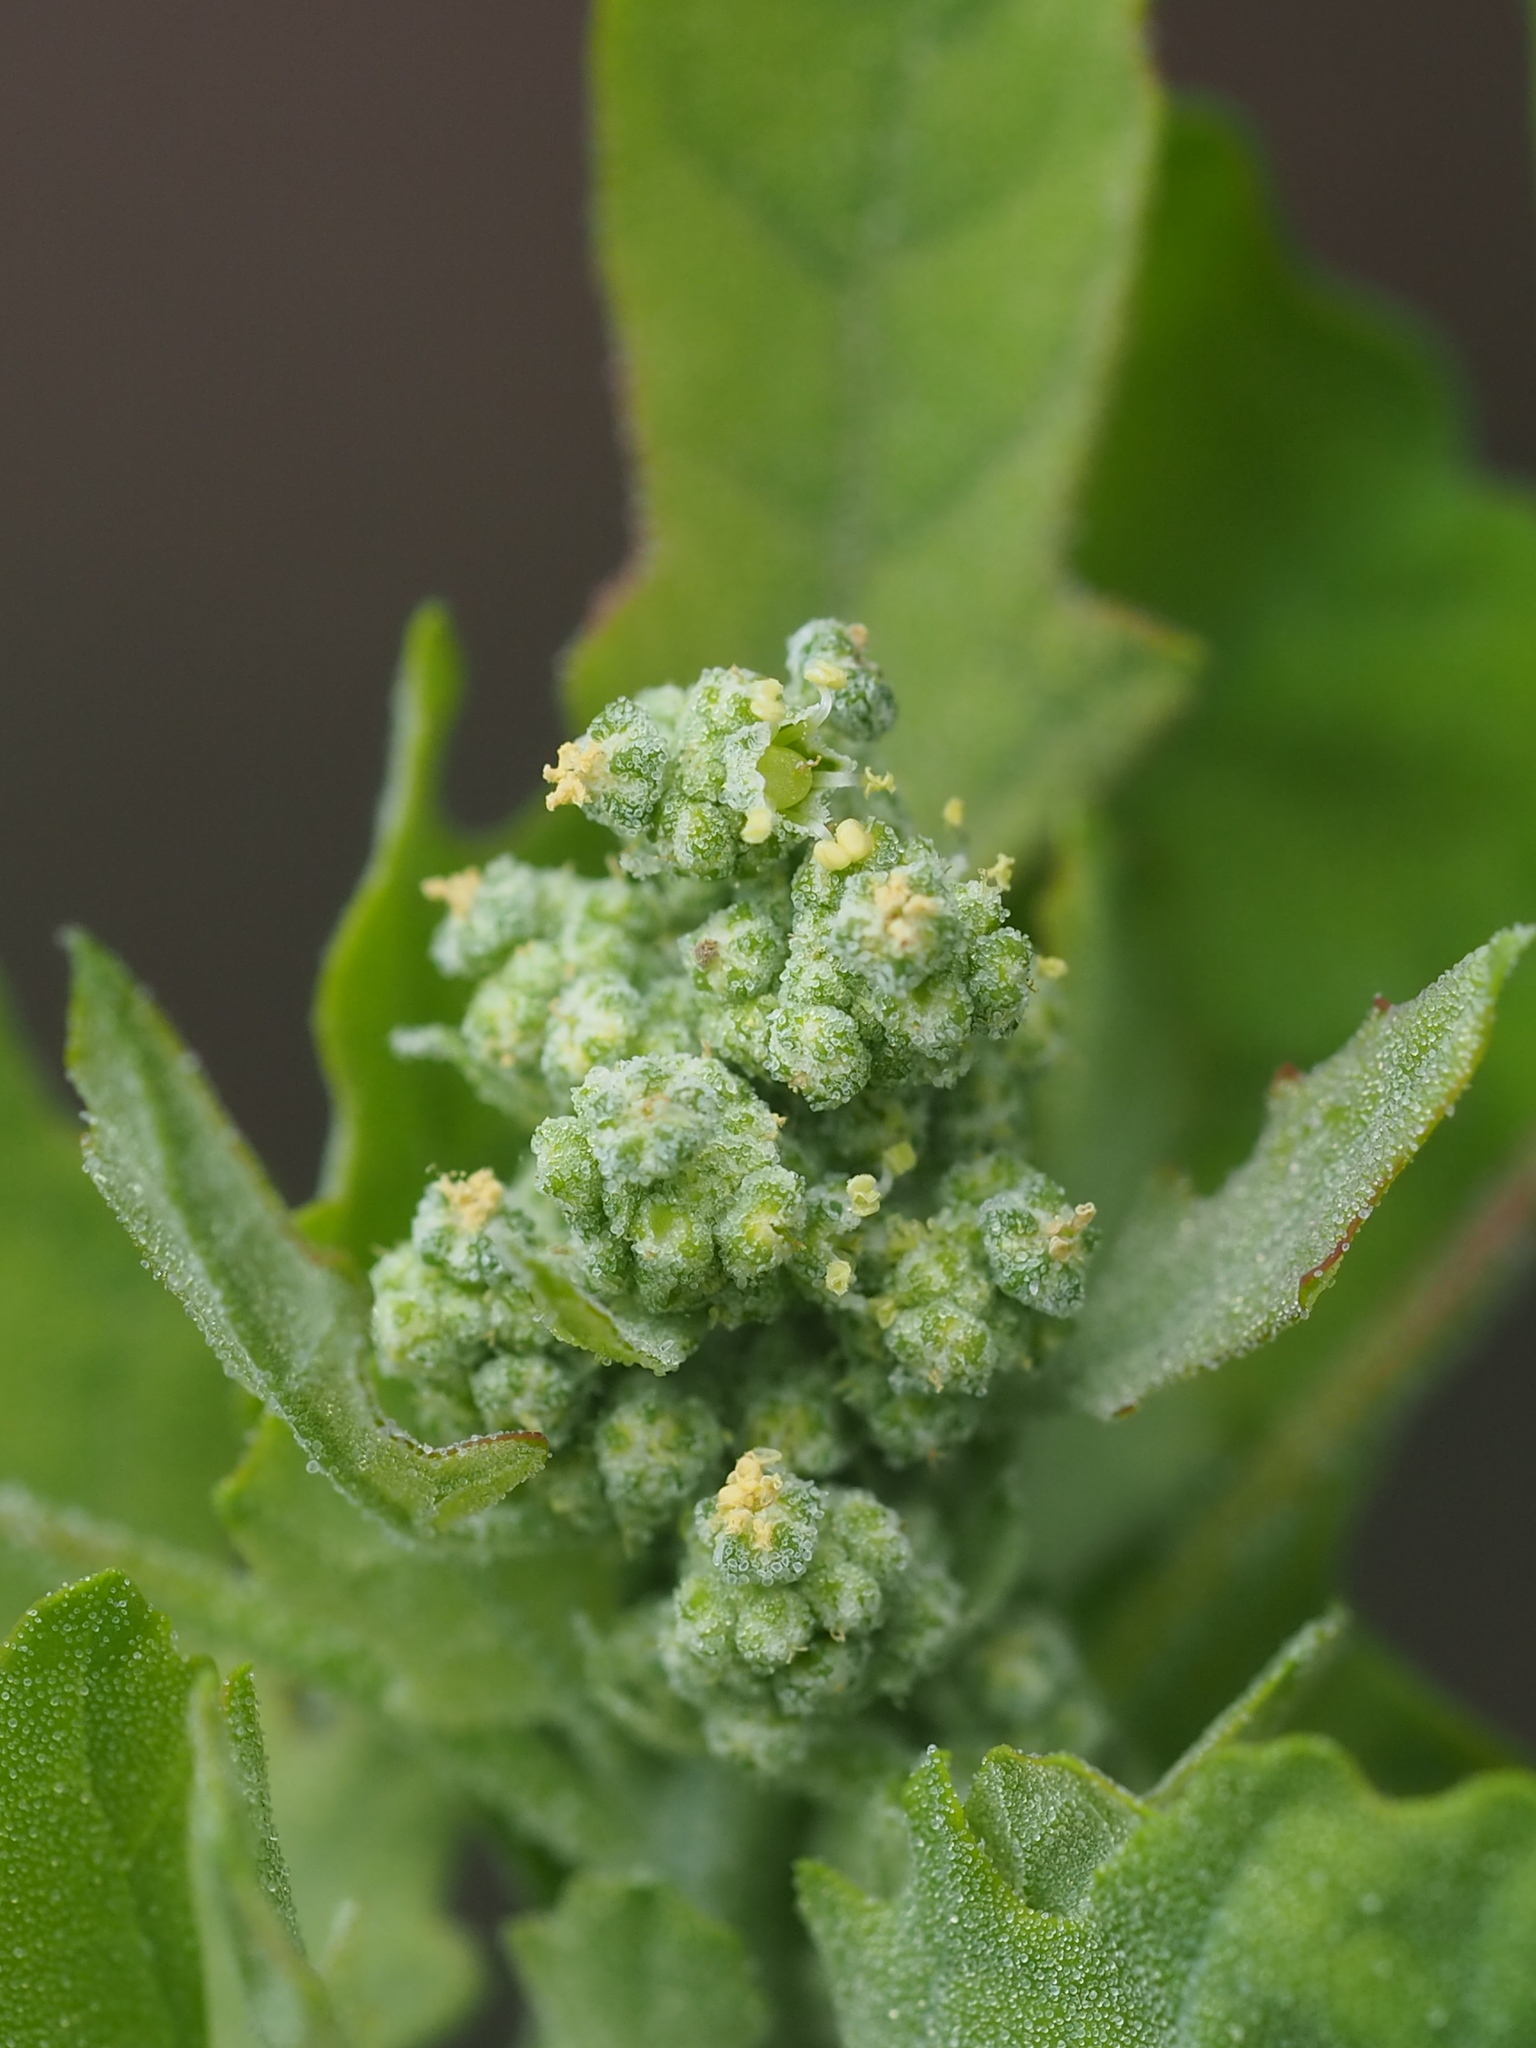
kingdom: Plantae
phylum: Tracheophyta
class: Magnoliopsida
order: Caryophyllales
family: Amaranthaceae
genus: Chenopodium
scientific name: Chenopodium ficifolium
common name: Fig-leaved goosefoot
